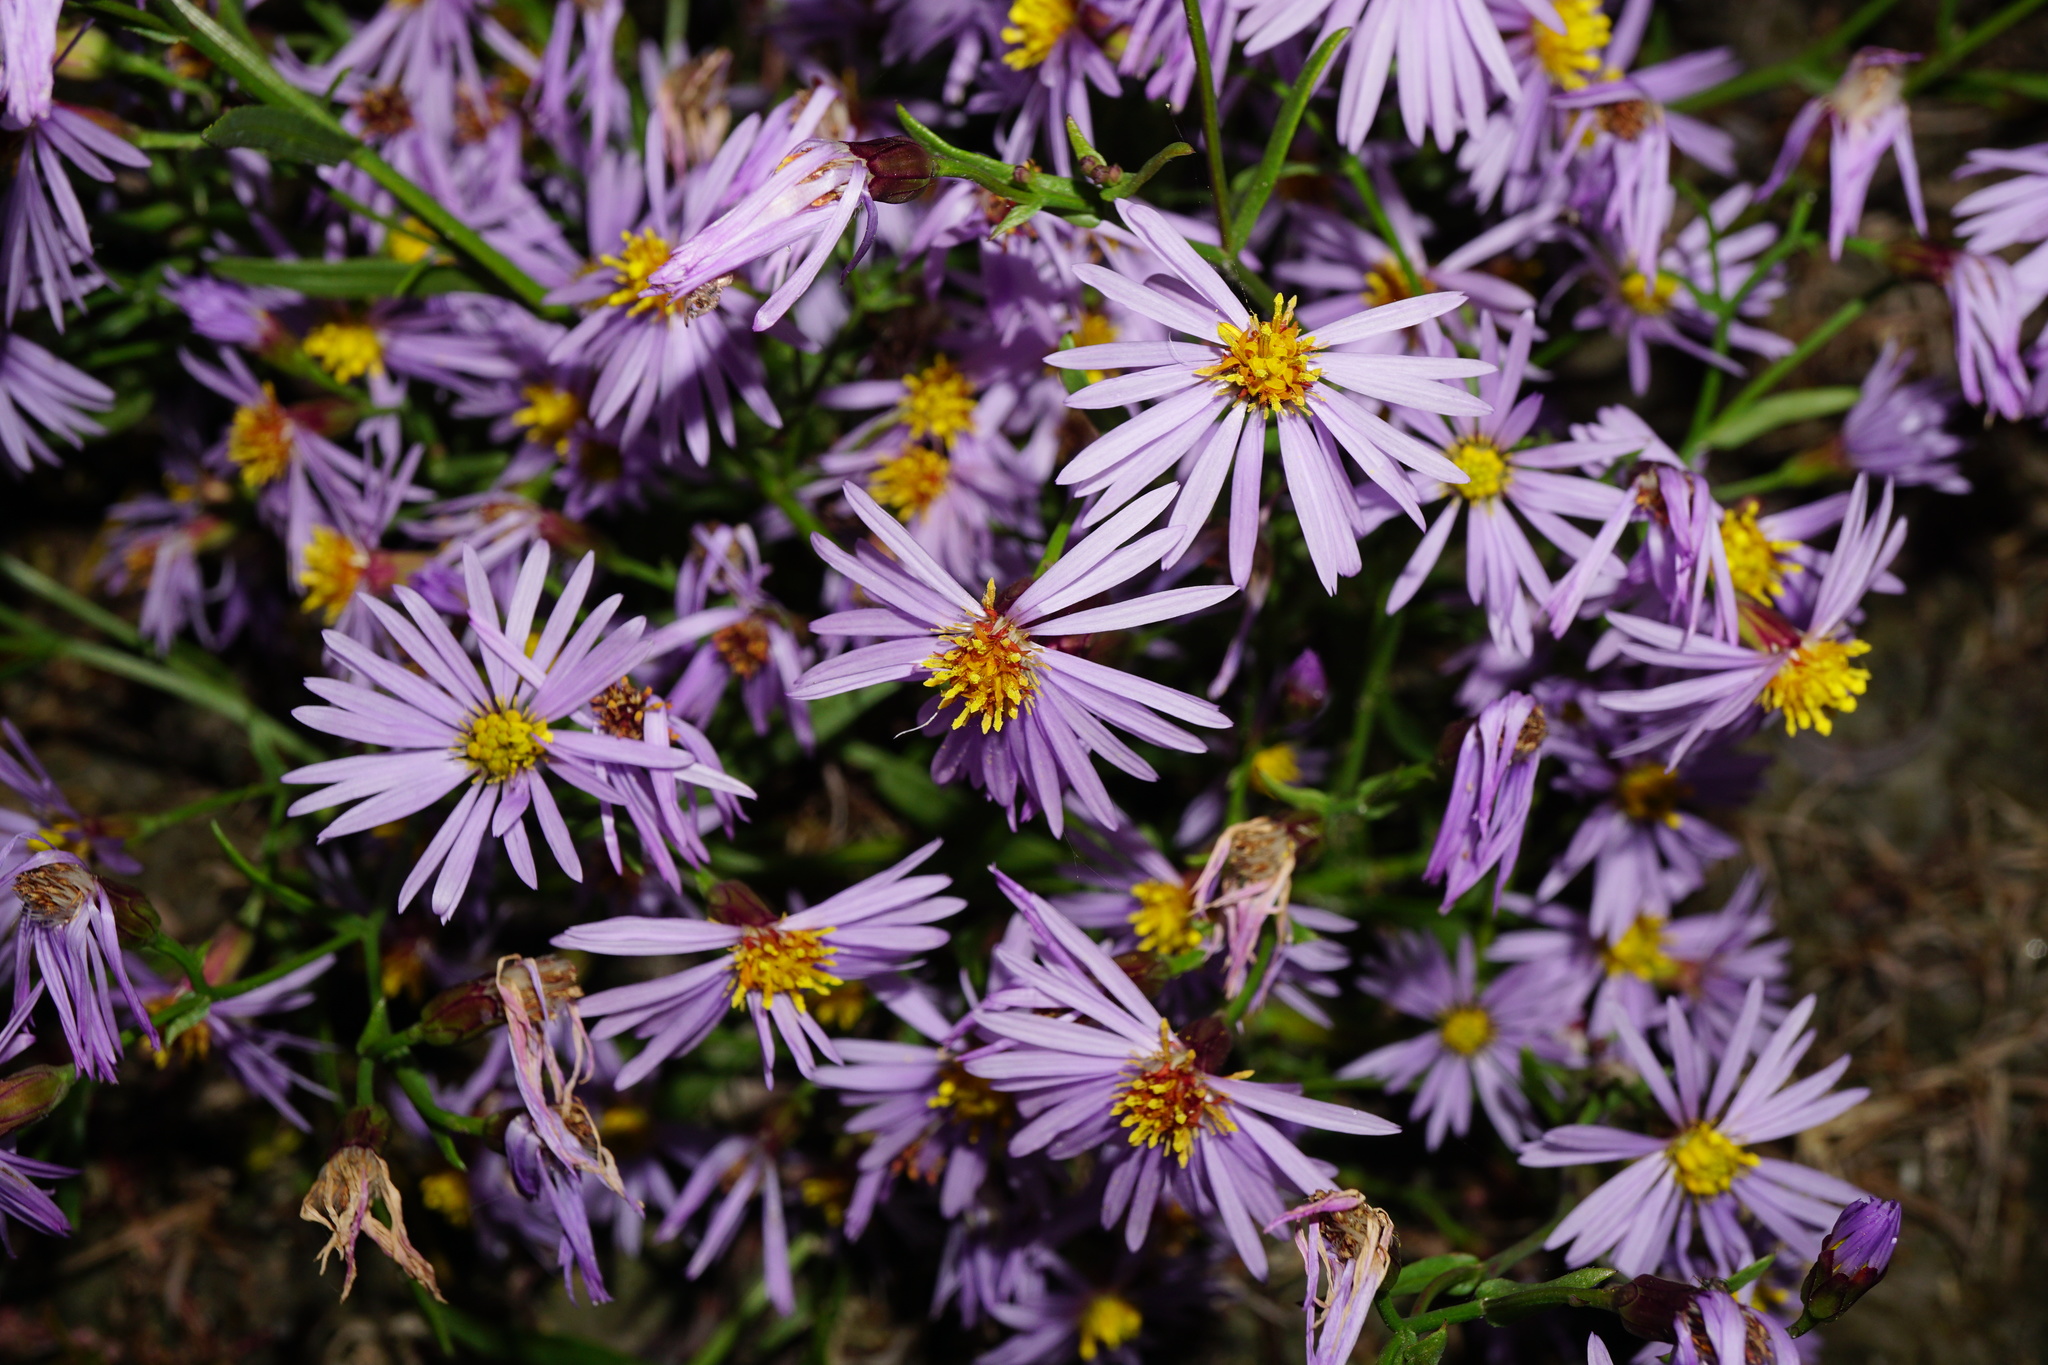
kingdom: Plantae
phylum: Tracheophyta
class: Magnoliopsida
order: Asterales
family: Asteraceae
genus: Tripolium
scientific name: Tripolium pannonicum
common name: Sea aster
